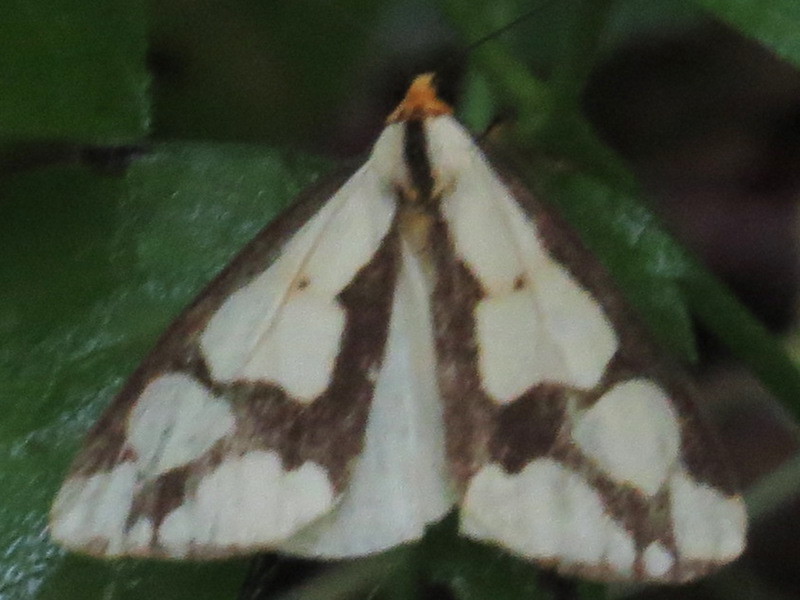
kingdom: Animalia
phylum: Arthropoda
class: Insecta
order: Lepidoptera
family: Erebidae
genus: Haploa
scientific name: Haploa lecontei
